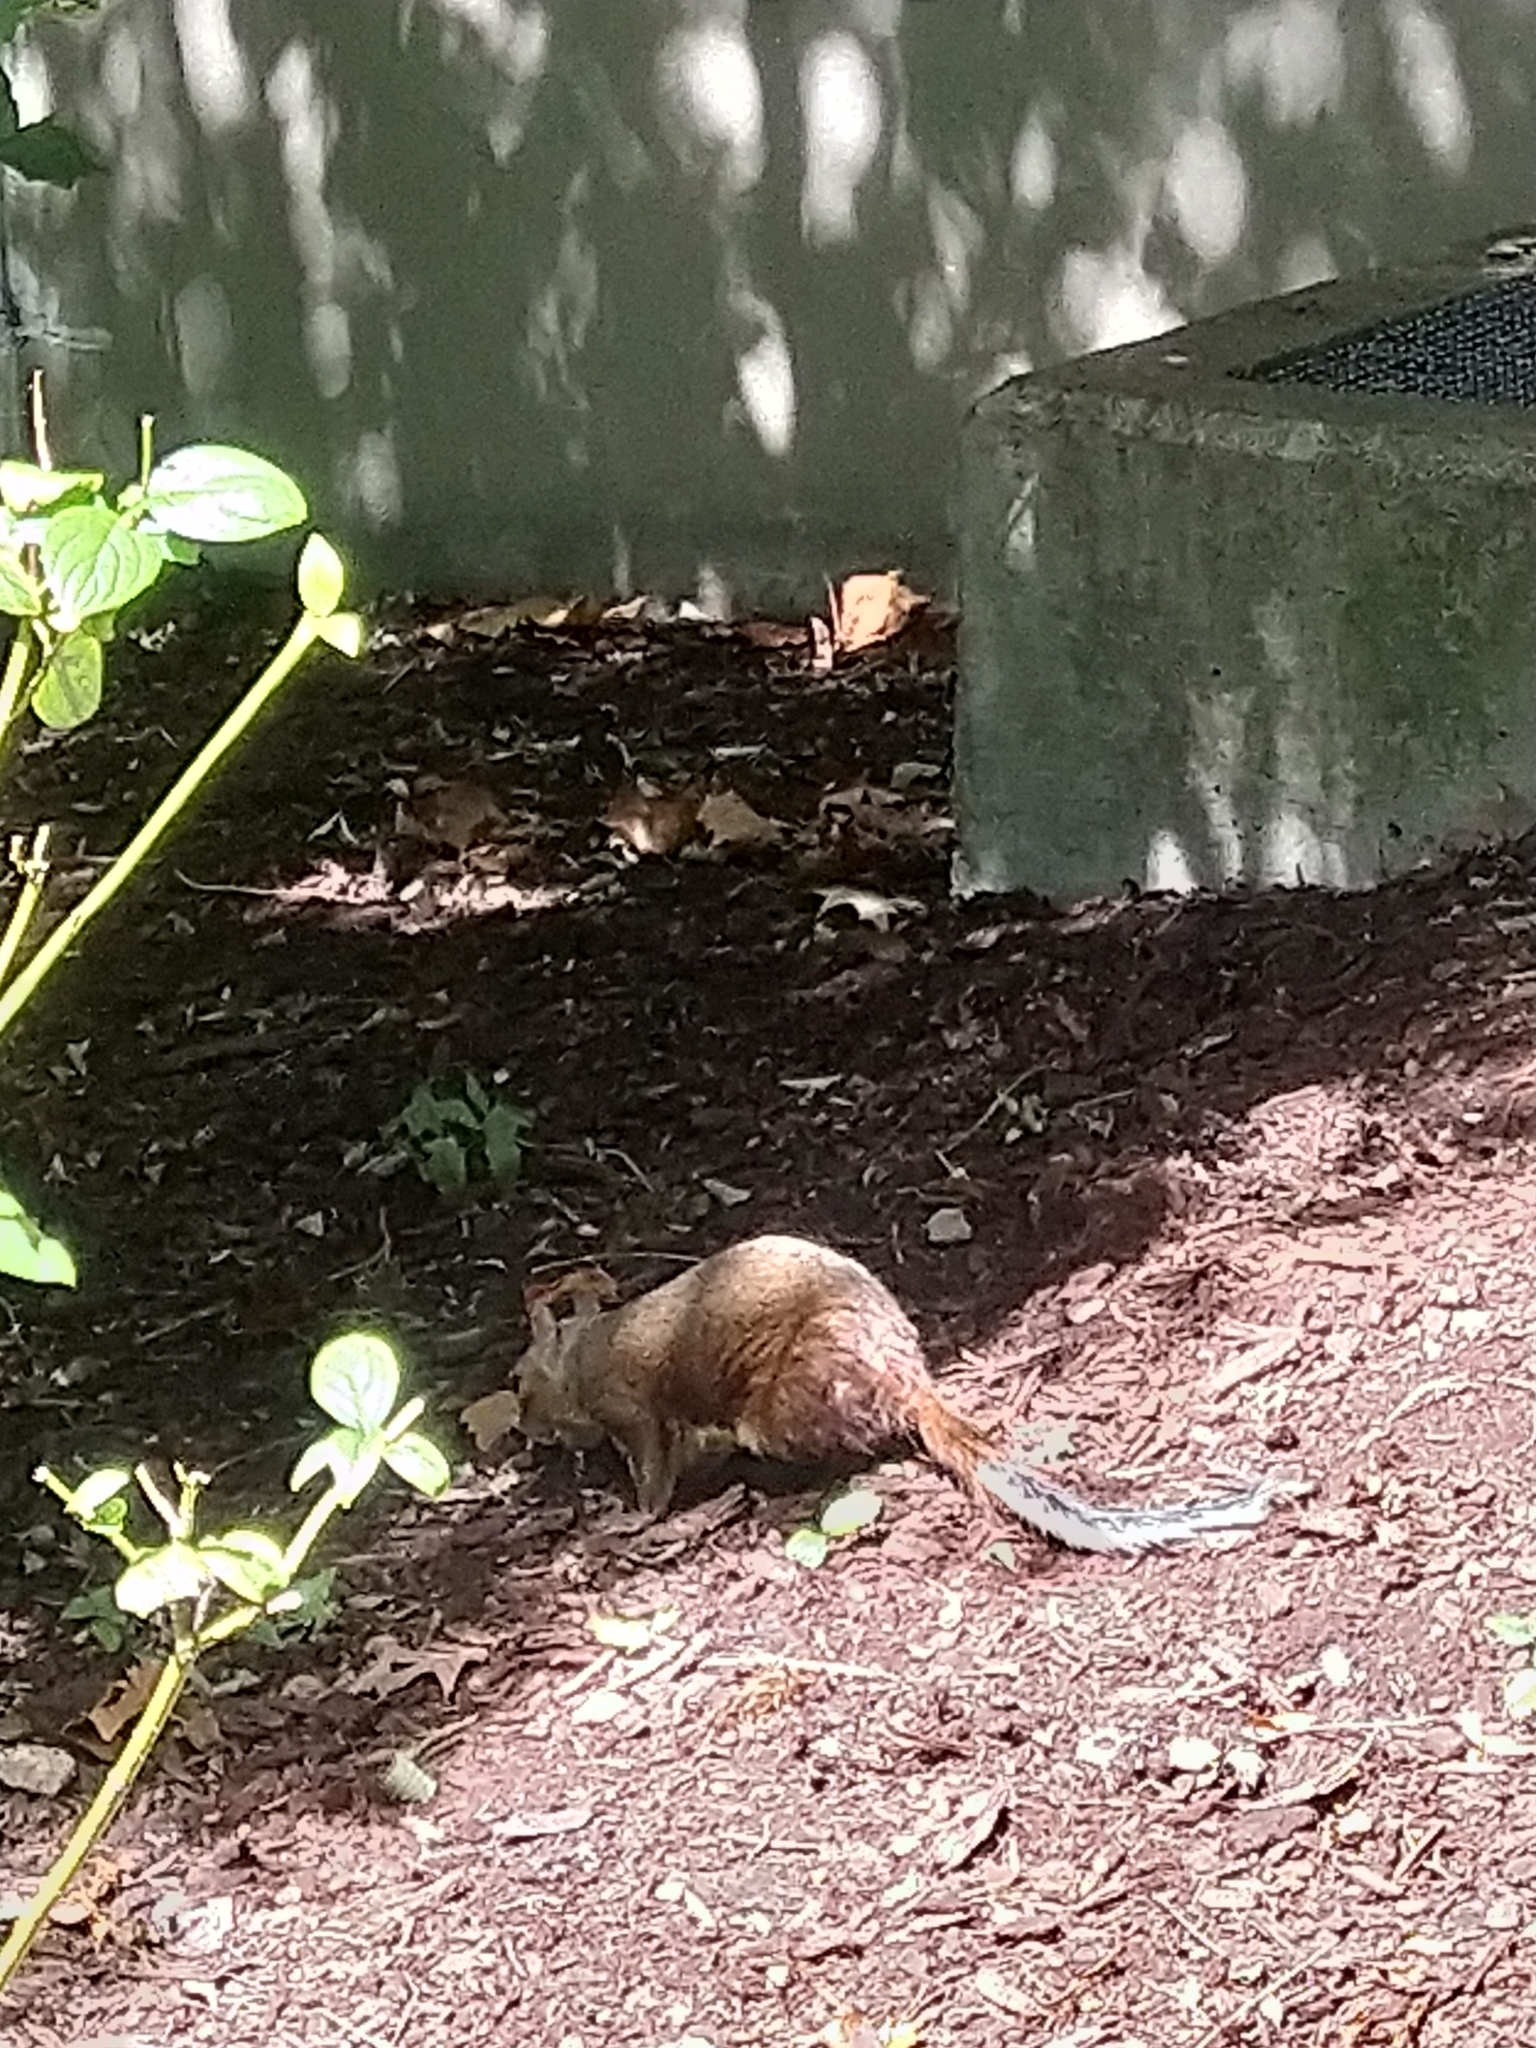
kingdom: Animalia
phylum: Chordata
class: Mammalia
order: Rodentia
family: Sciuridae
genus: Sciurus
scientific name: Sciurus carolinensis
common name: Eastern gray squirrel
